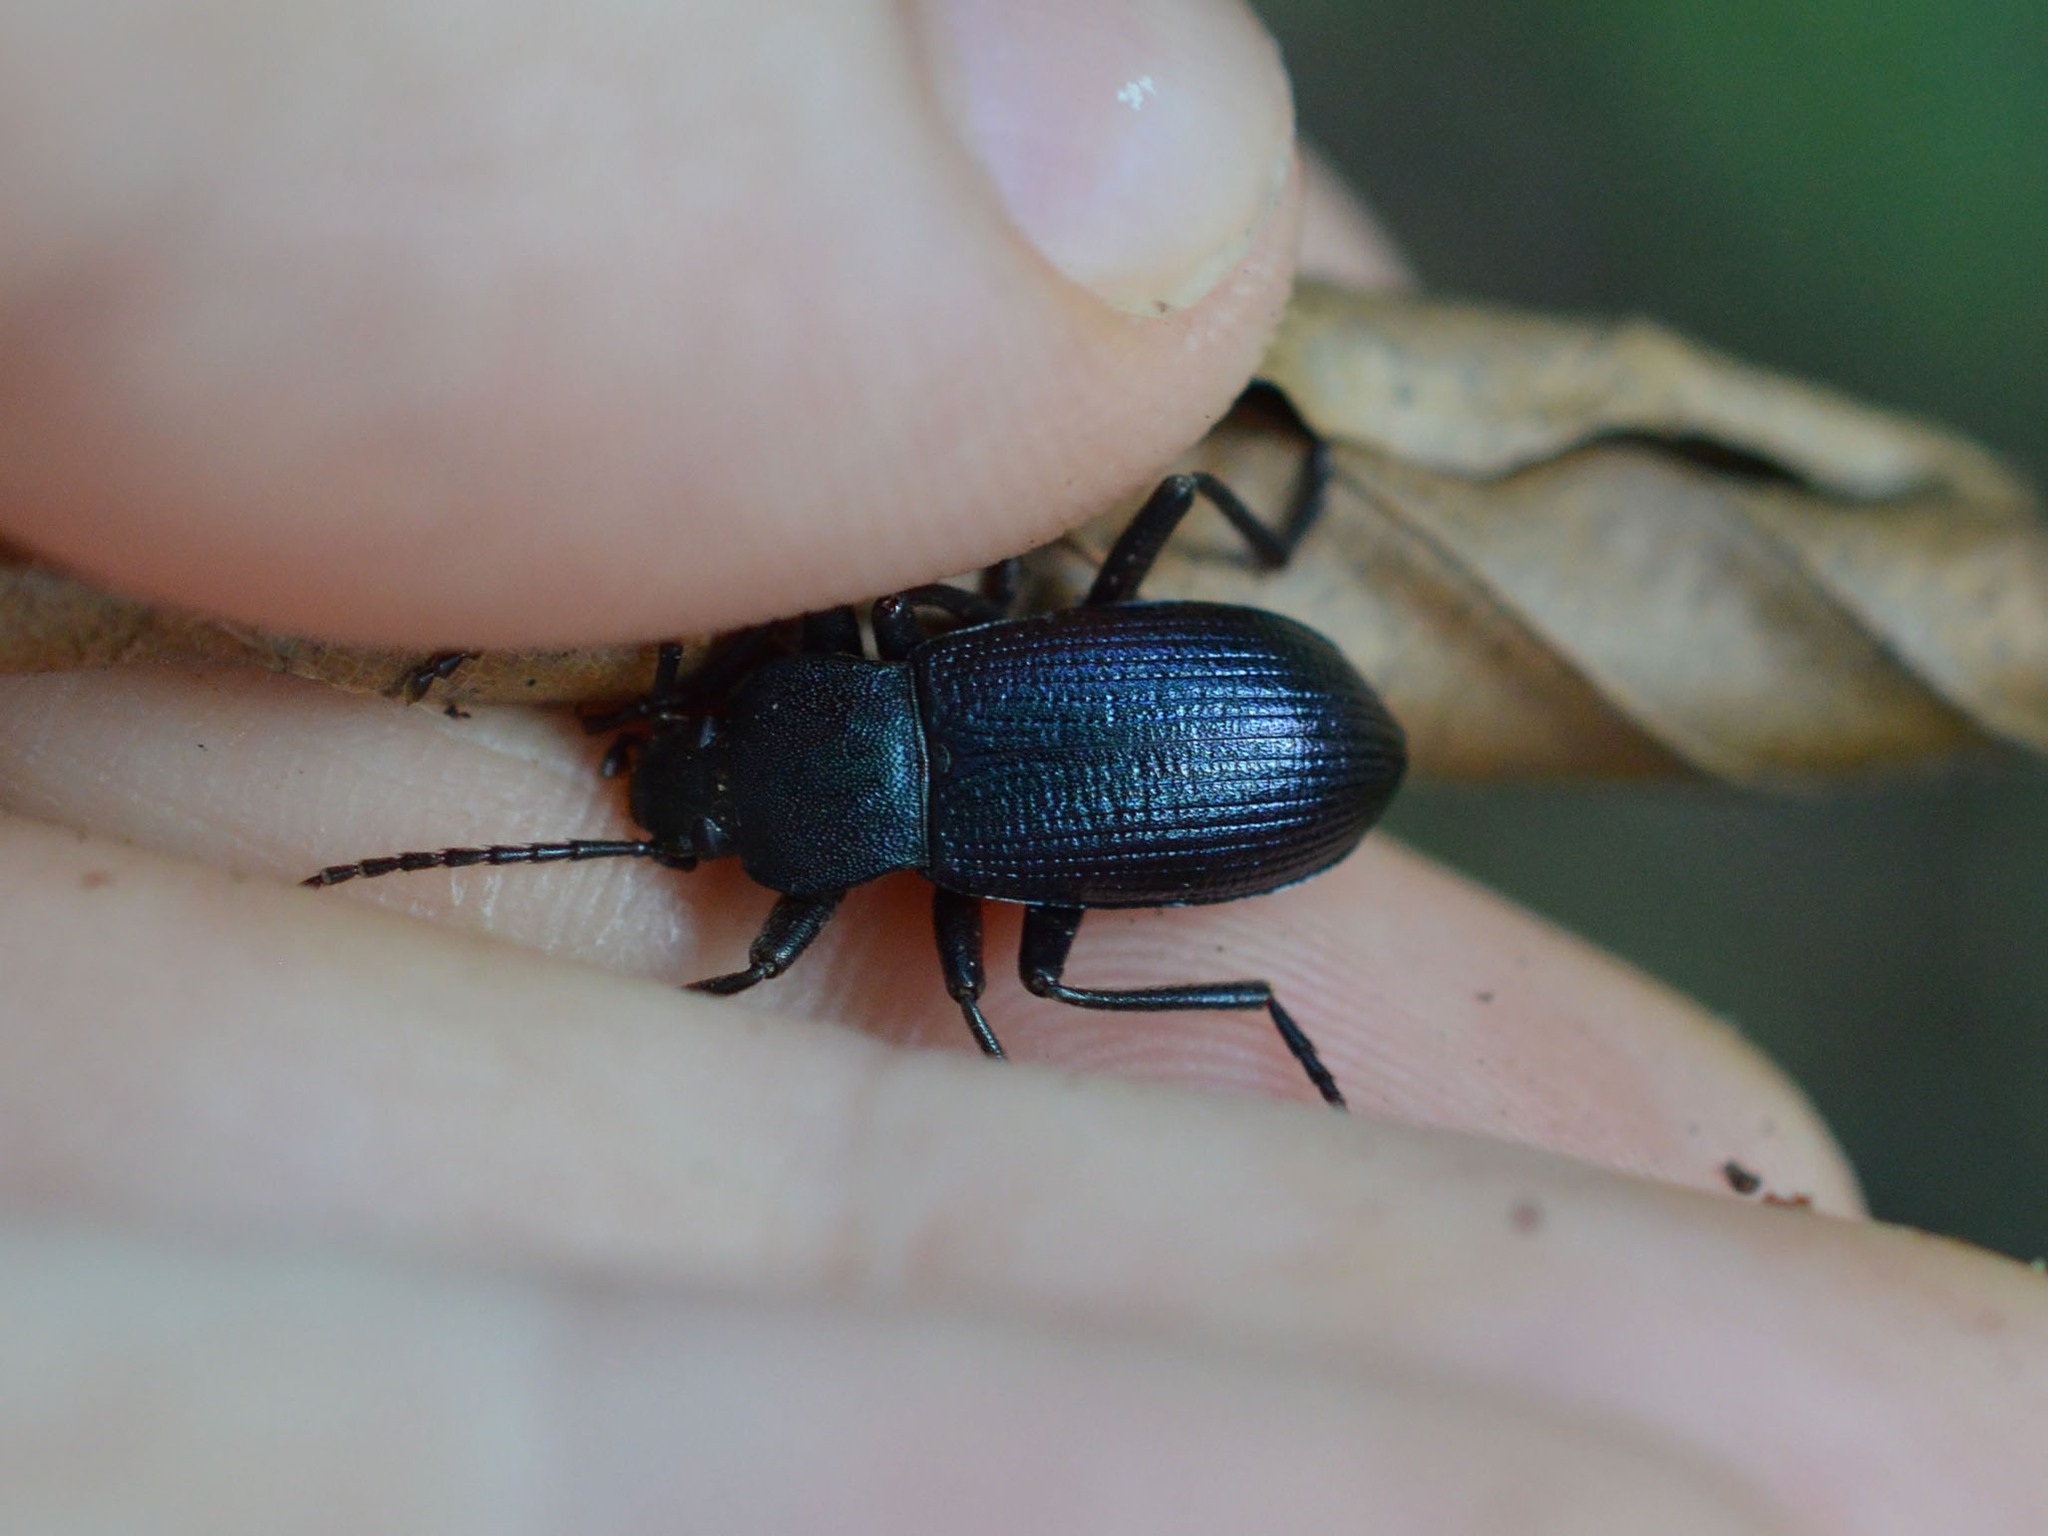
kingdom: Animalia
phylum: Arthropoda
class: Insecta
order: Coleoptera
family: Tenebrionidae
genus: Helops
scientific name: Helops caeruleus
